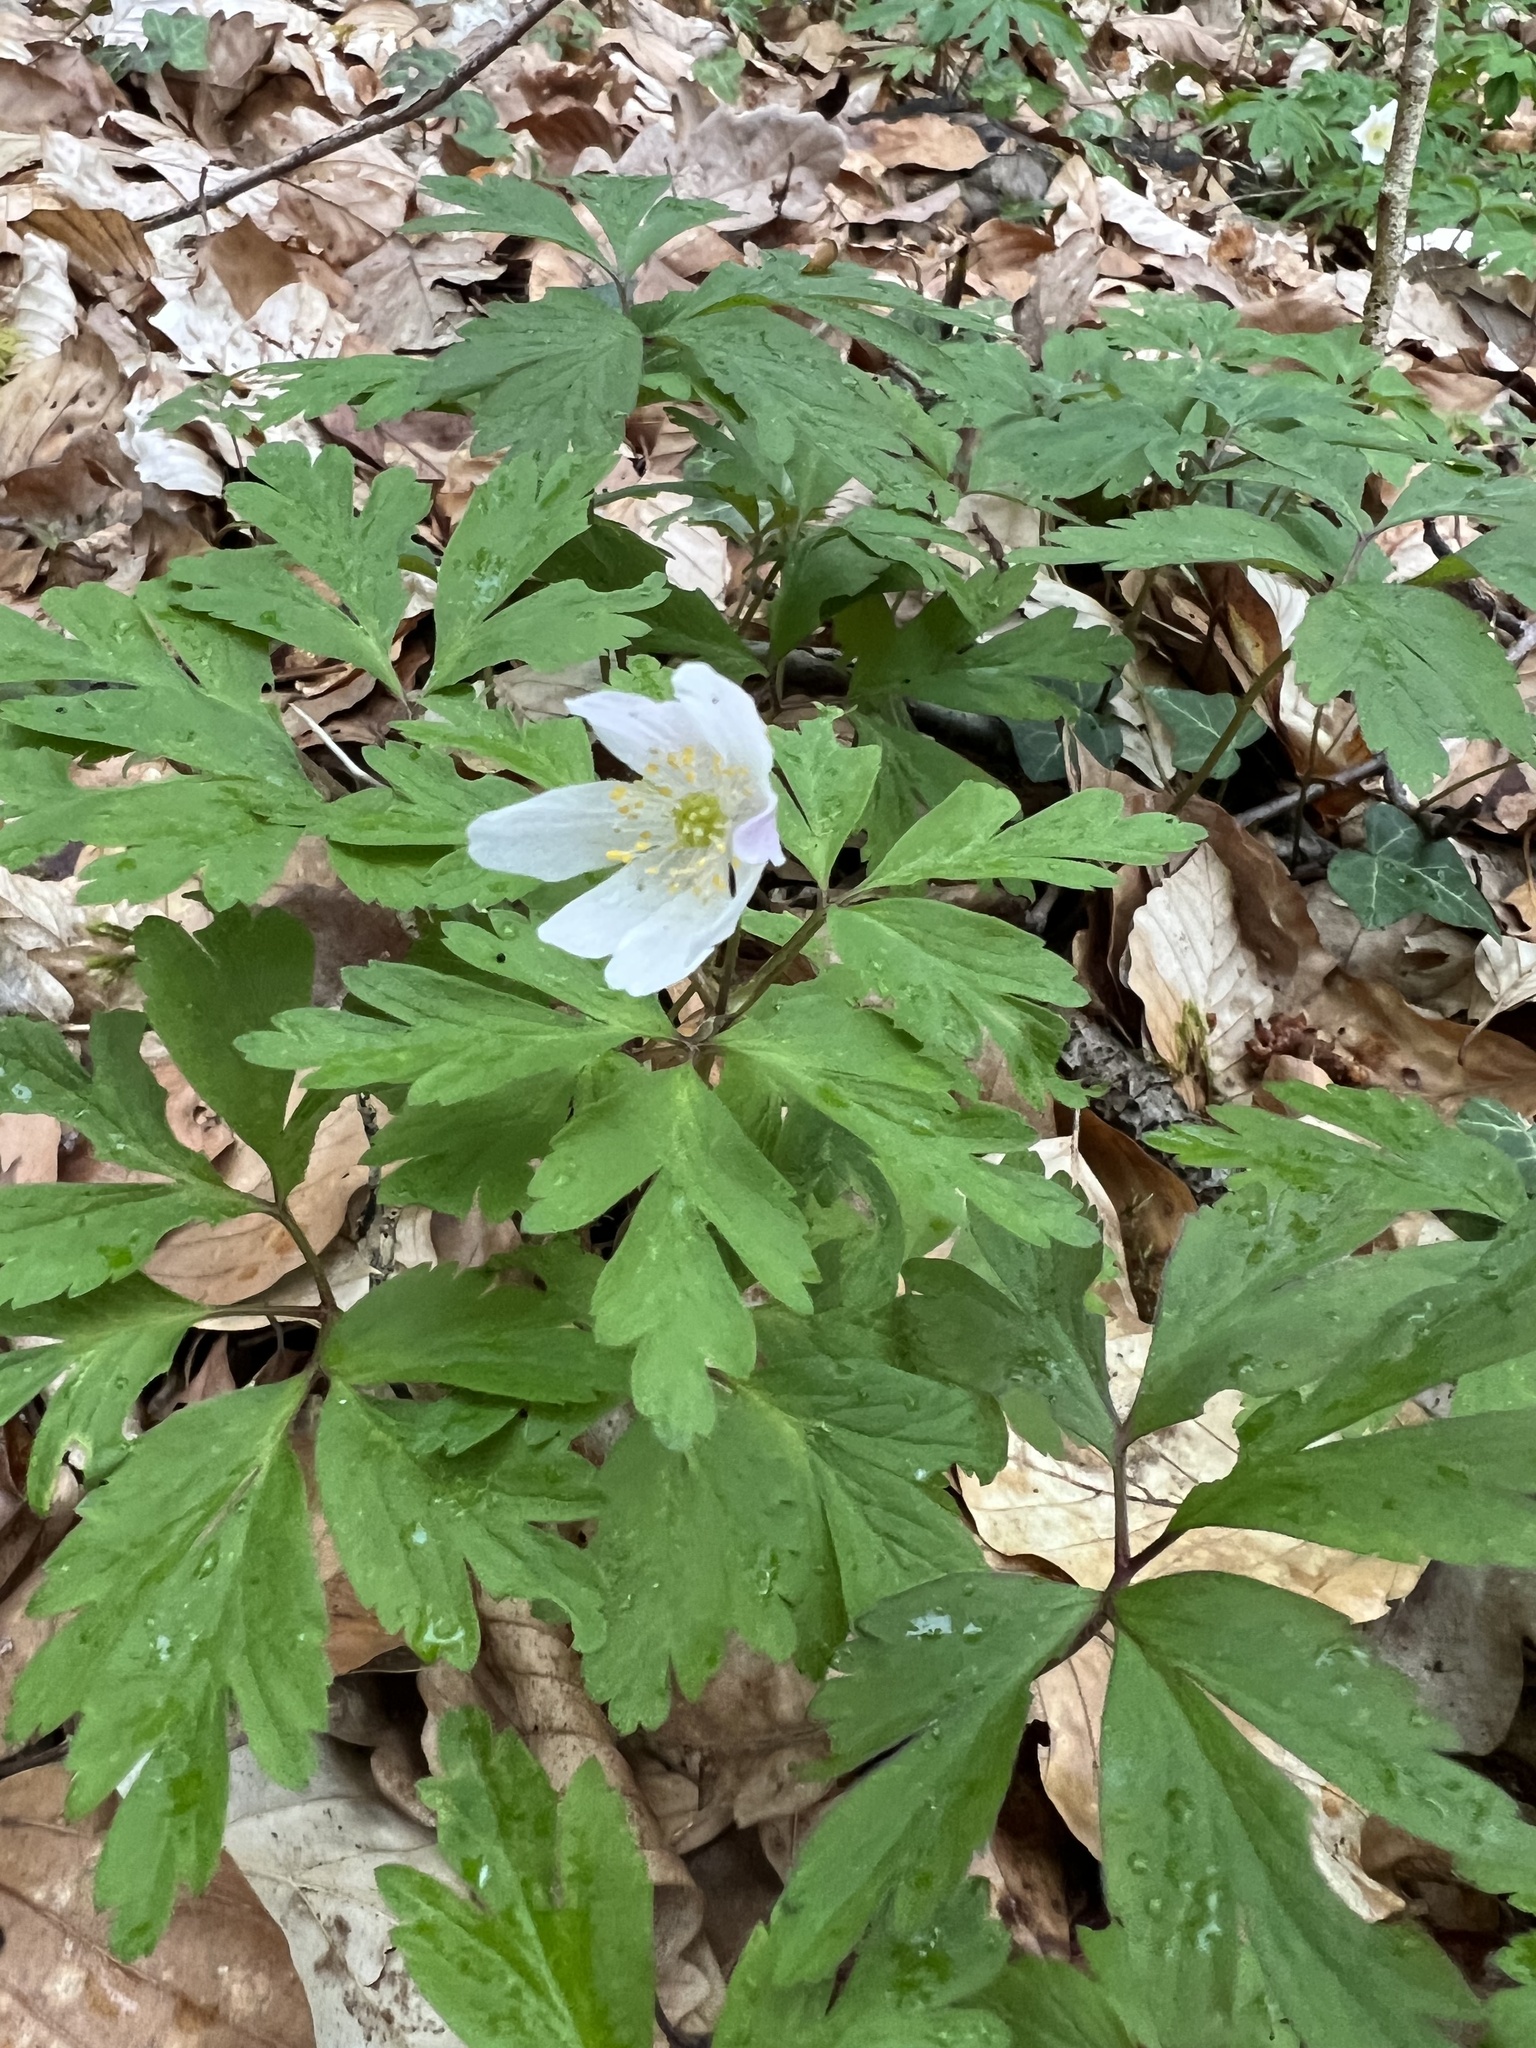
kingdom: Plantae
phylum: Tracheophyta
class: Magnoliopsida
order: Ranunculales
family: Ranunculaceae
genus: Anemone
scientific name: Anemone nemorosa
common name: Wood anemone
